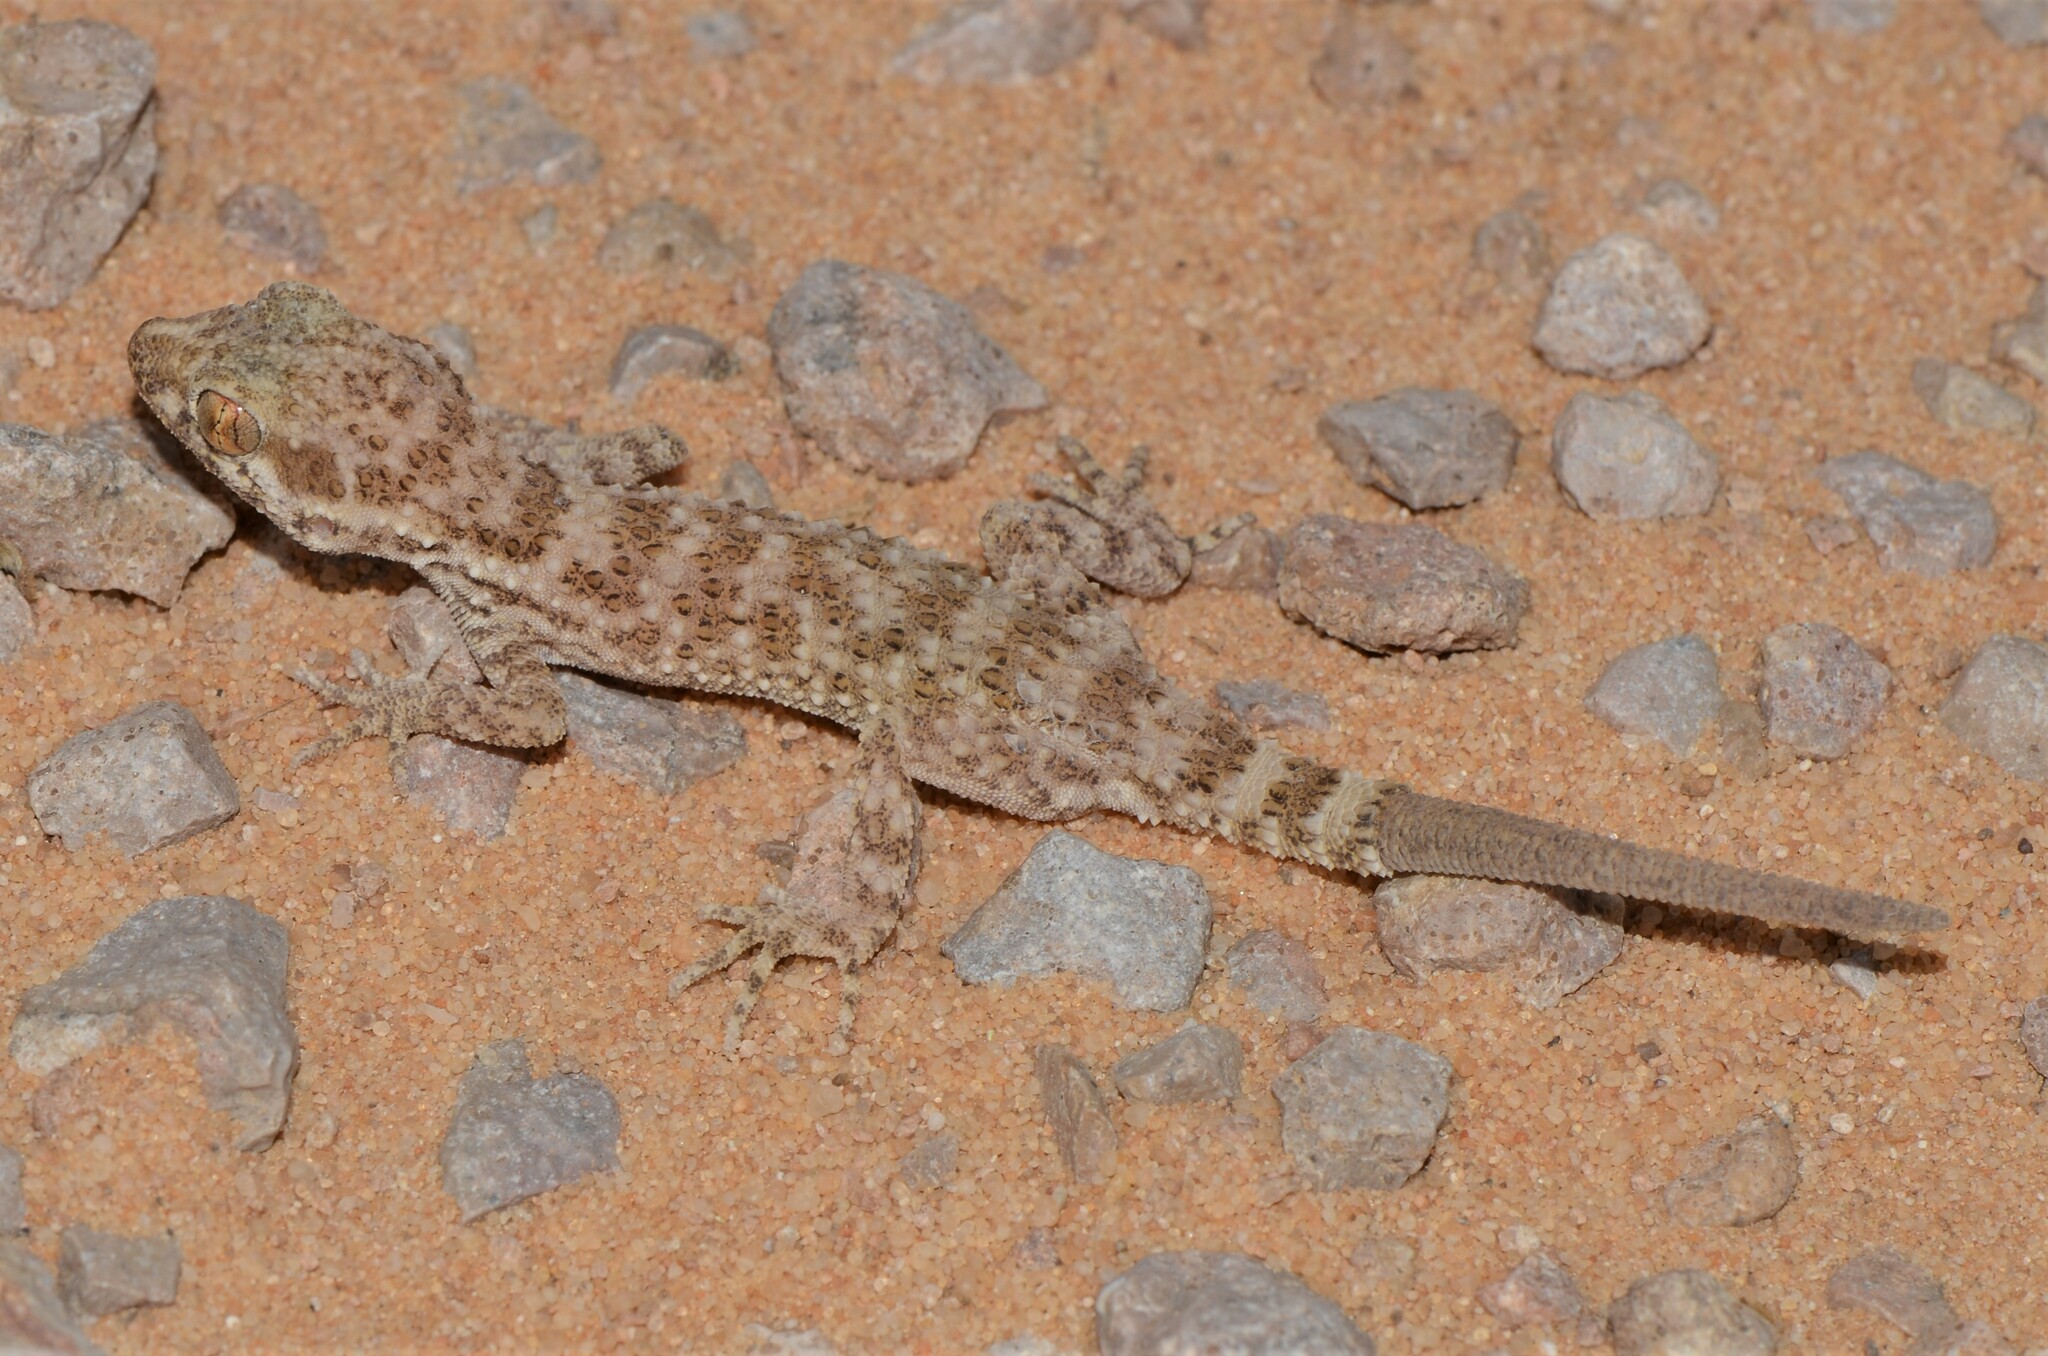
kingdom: Animalia
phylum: Chordata
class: Squamata
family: Gekkonidae
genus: Bunopus
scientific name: Bunopus tuberculatus
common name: Southern tuberculated gecko
